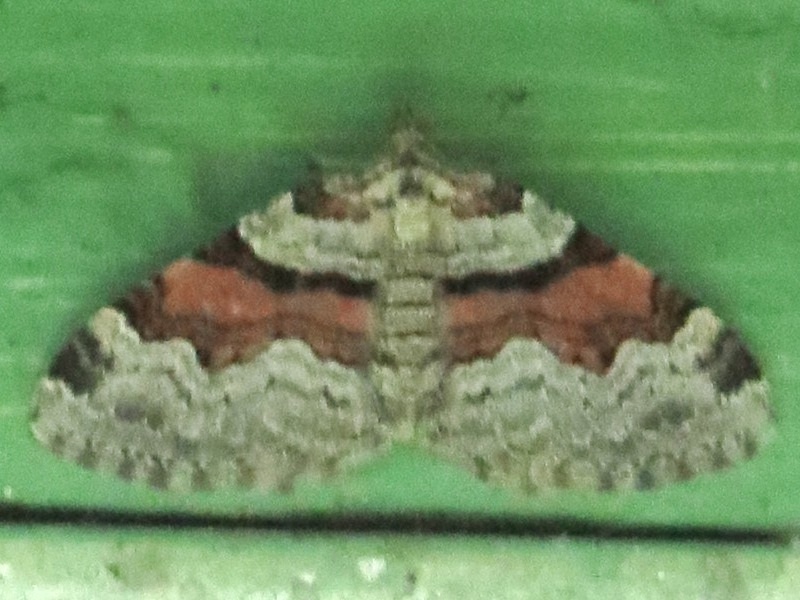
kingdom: Animalia
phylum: Arthropoda
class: Insecta
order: Lepidoptera
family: Geometridae
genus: Xanthorhoe
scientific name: Xanthorhoe labradorensis
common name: Labrador carpet
